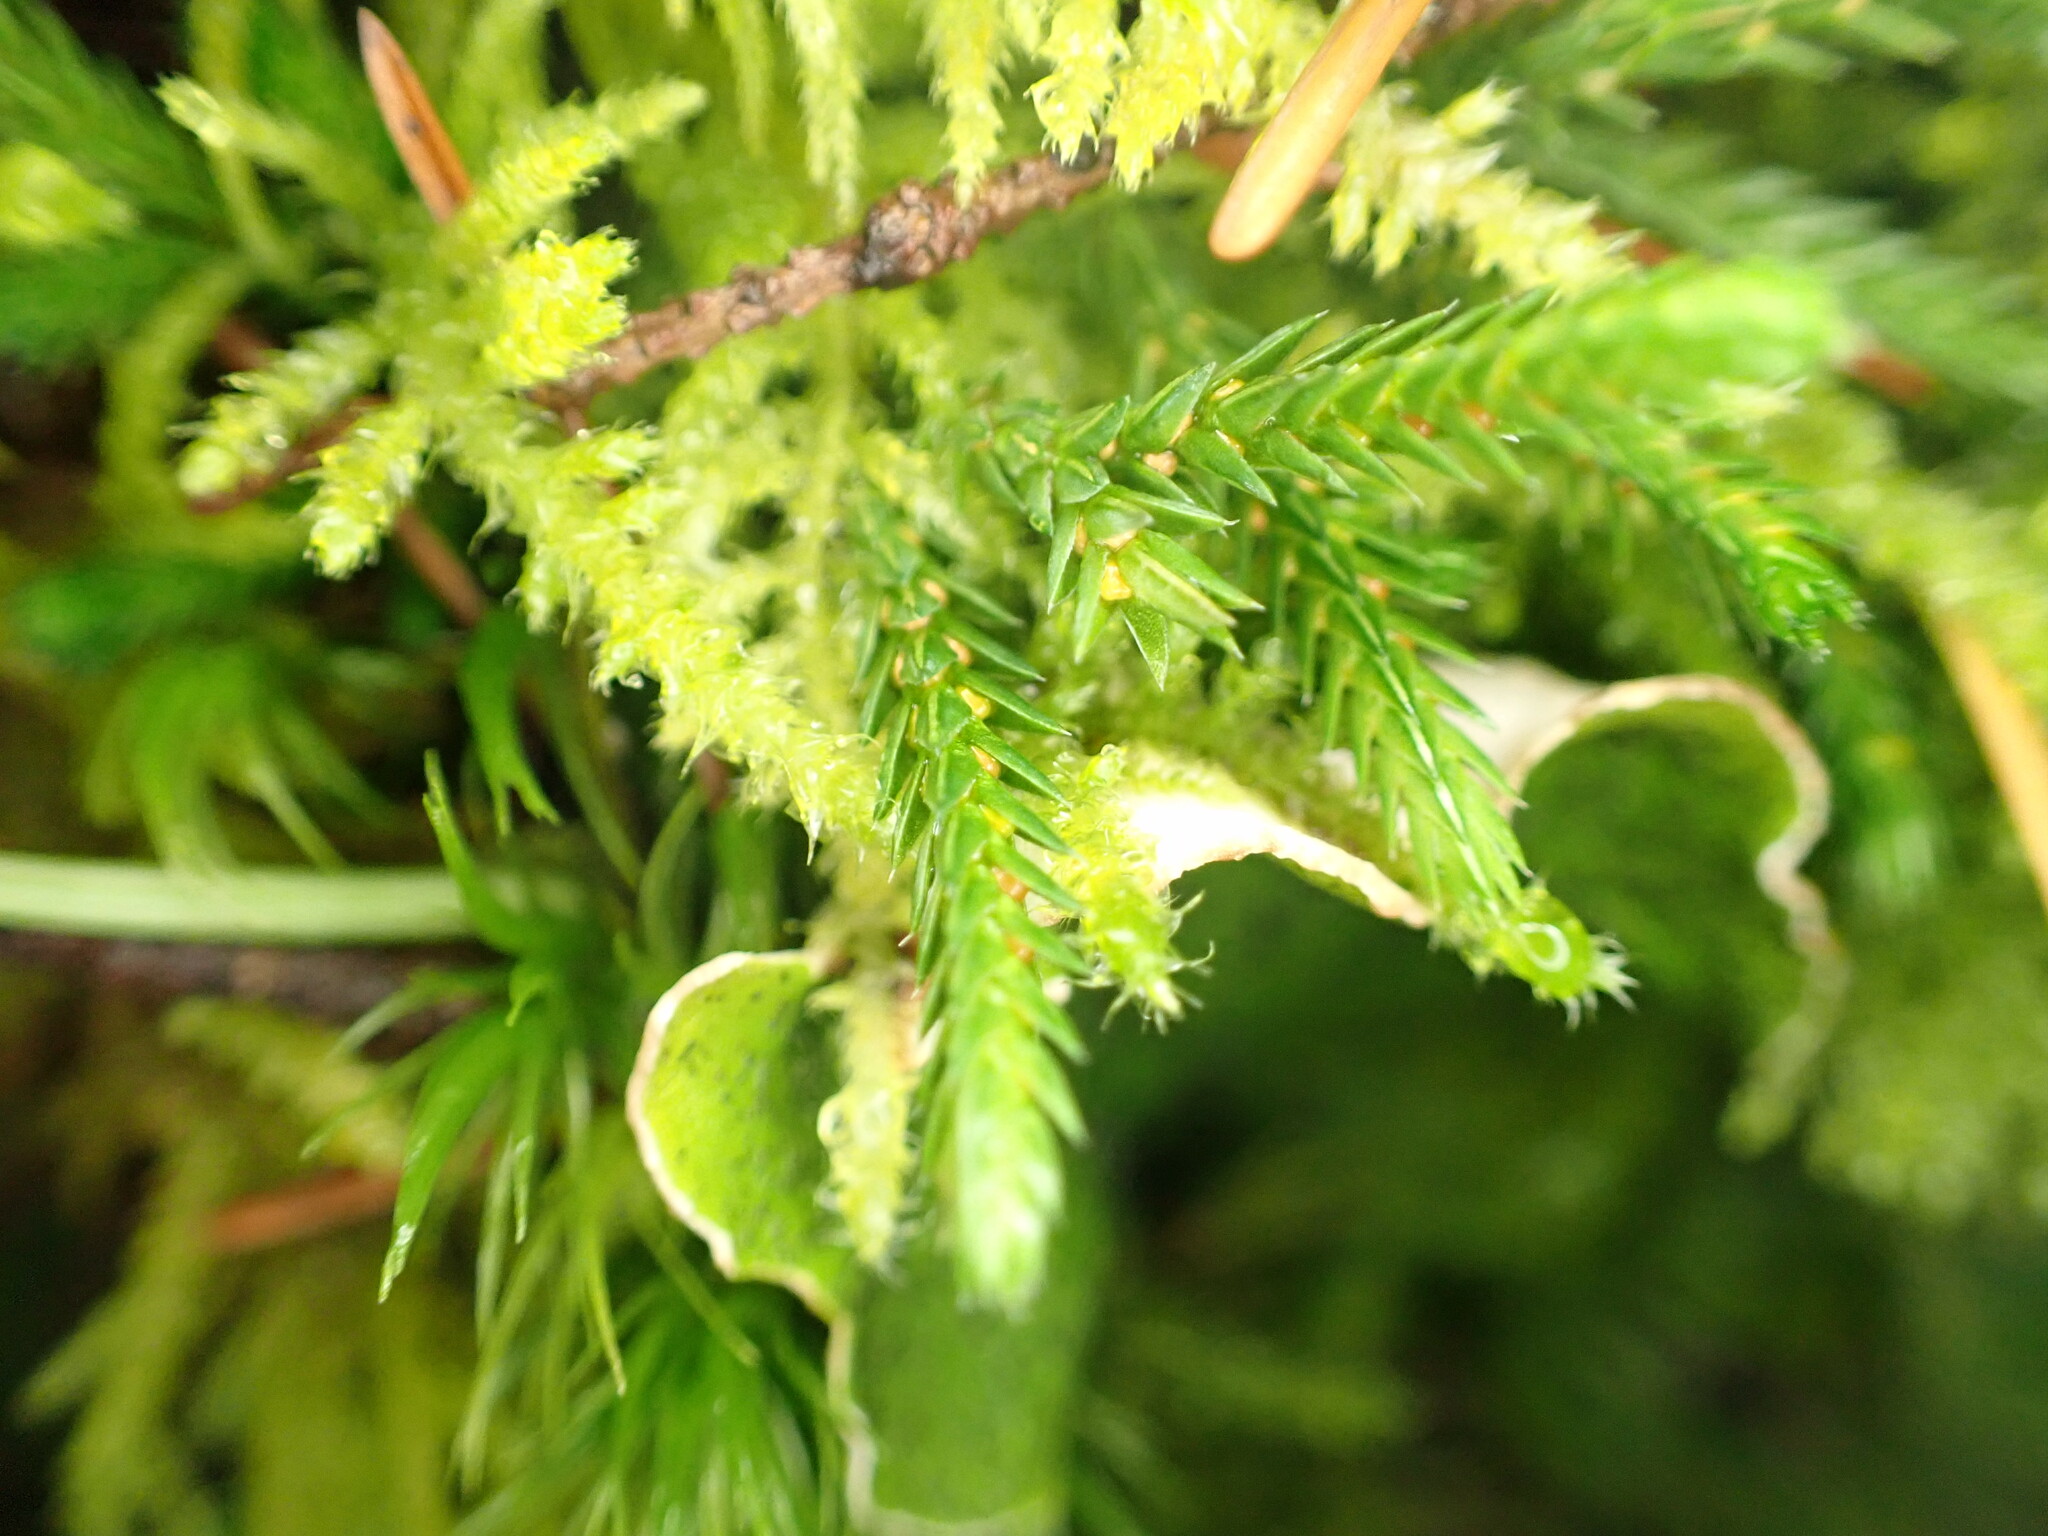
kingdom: Plantae
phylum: Tracheophyta
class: Lycopodiopsida
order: Selaginellales
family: Selaginellaceae
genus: Selaginella
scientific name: Selaginella wallacei
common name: Wallace's selaginella
